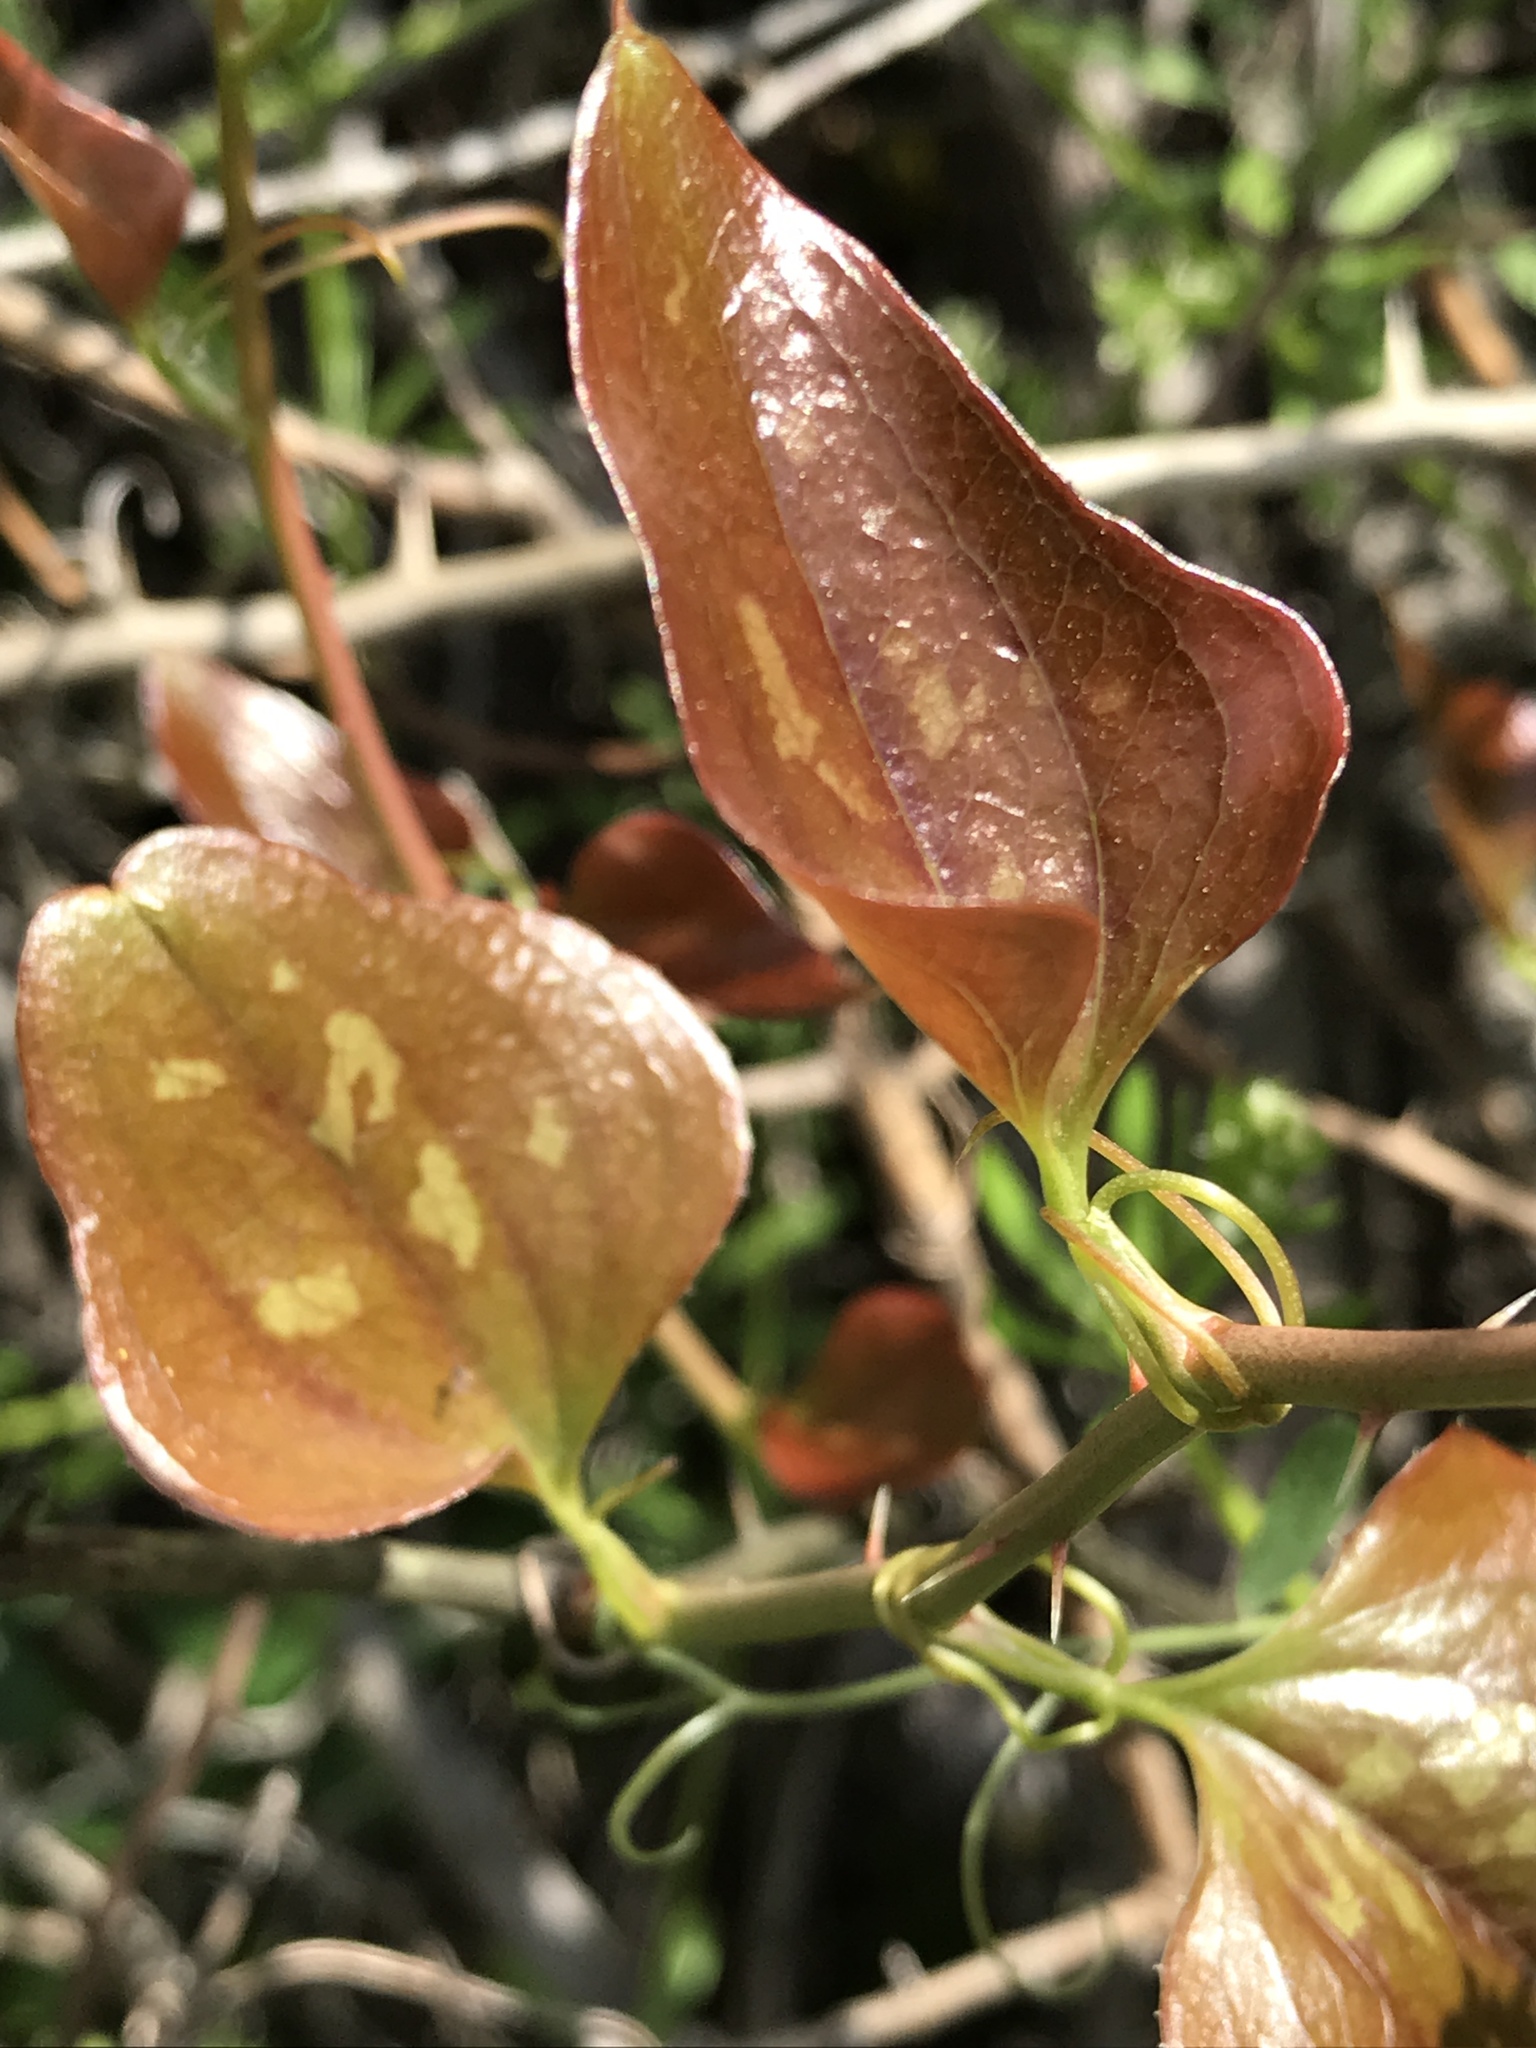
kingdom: Plantae
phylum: Tracheophyta
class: Liliopsida
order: Liliales
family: Smilacaceae
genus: Smilax
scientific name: Smilax bona-nox
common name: Catbrier
